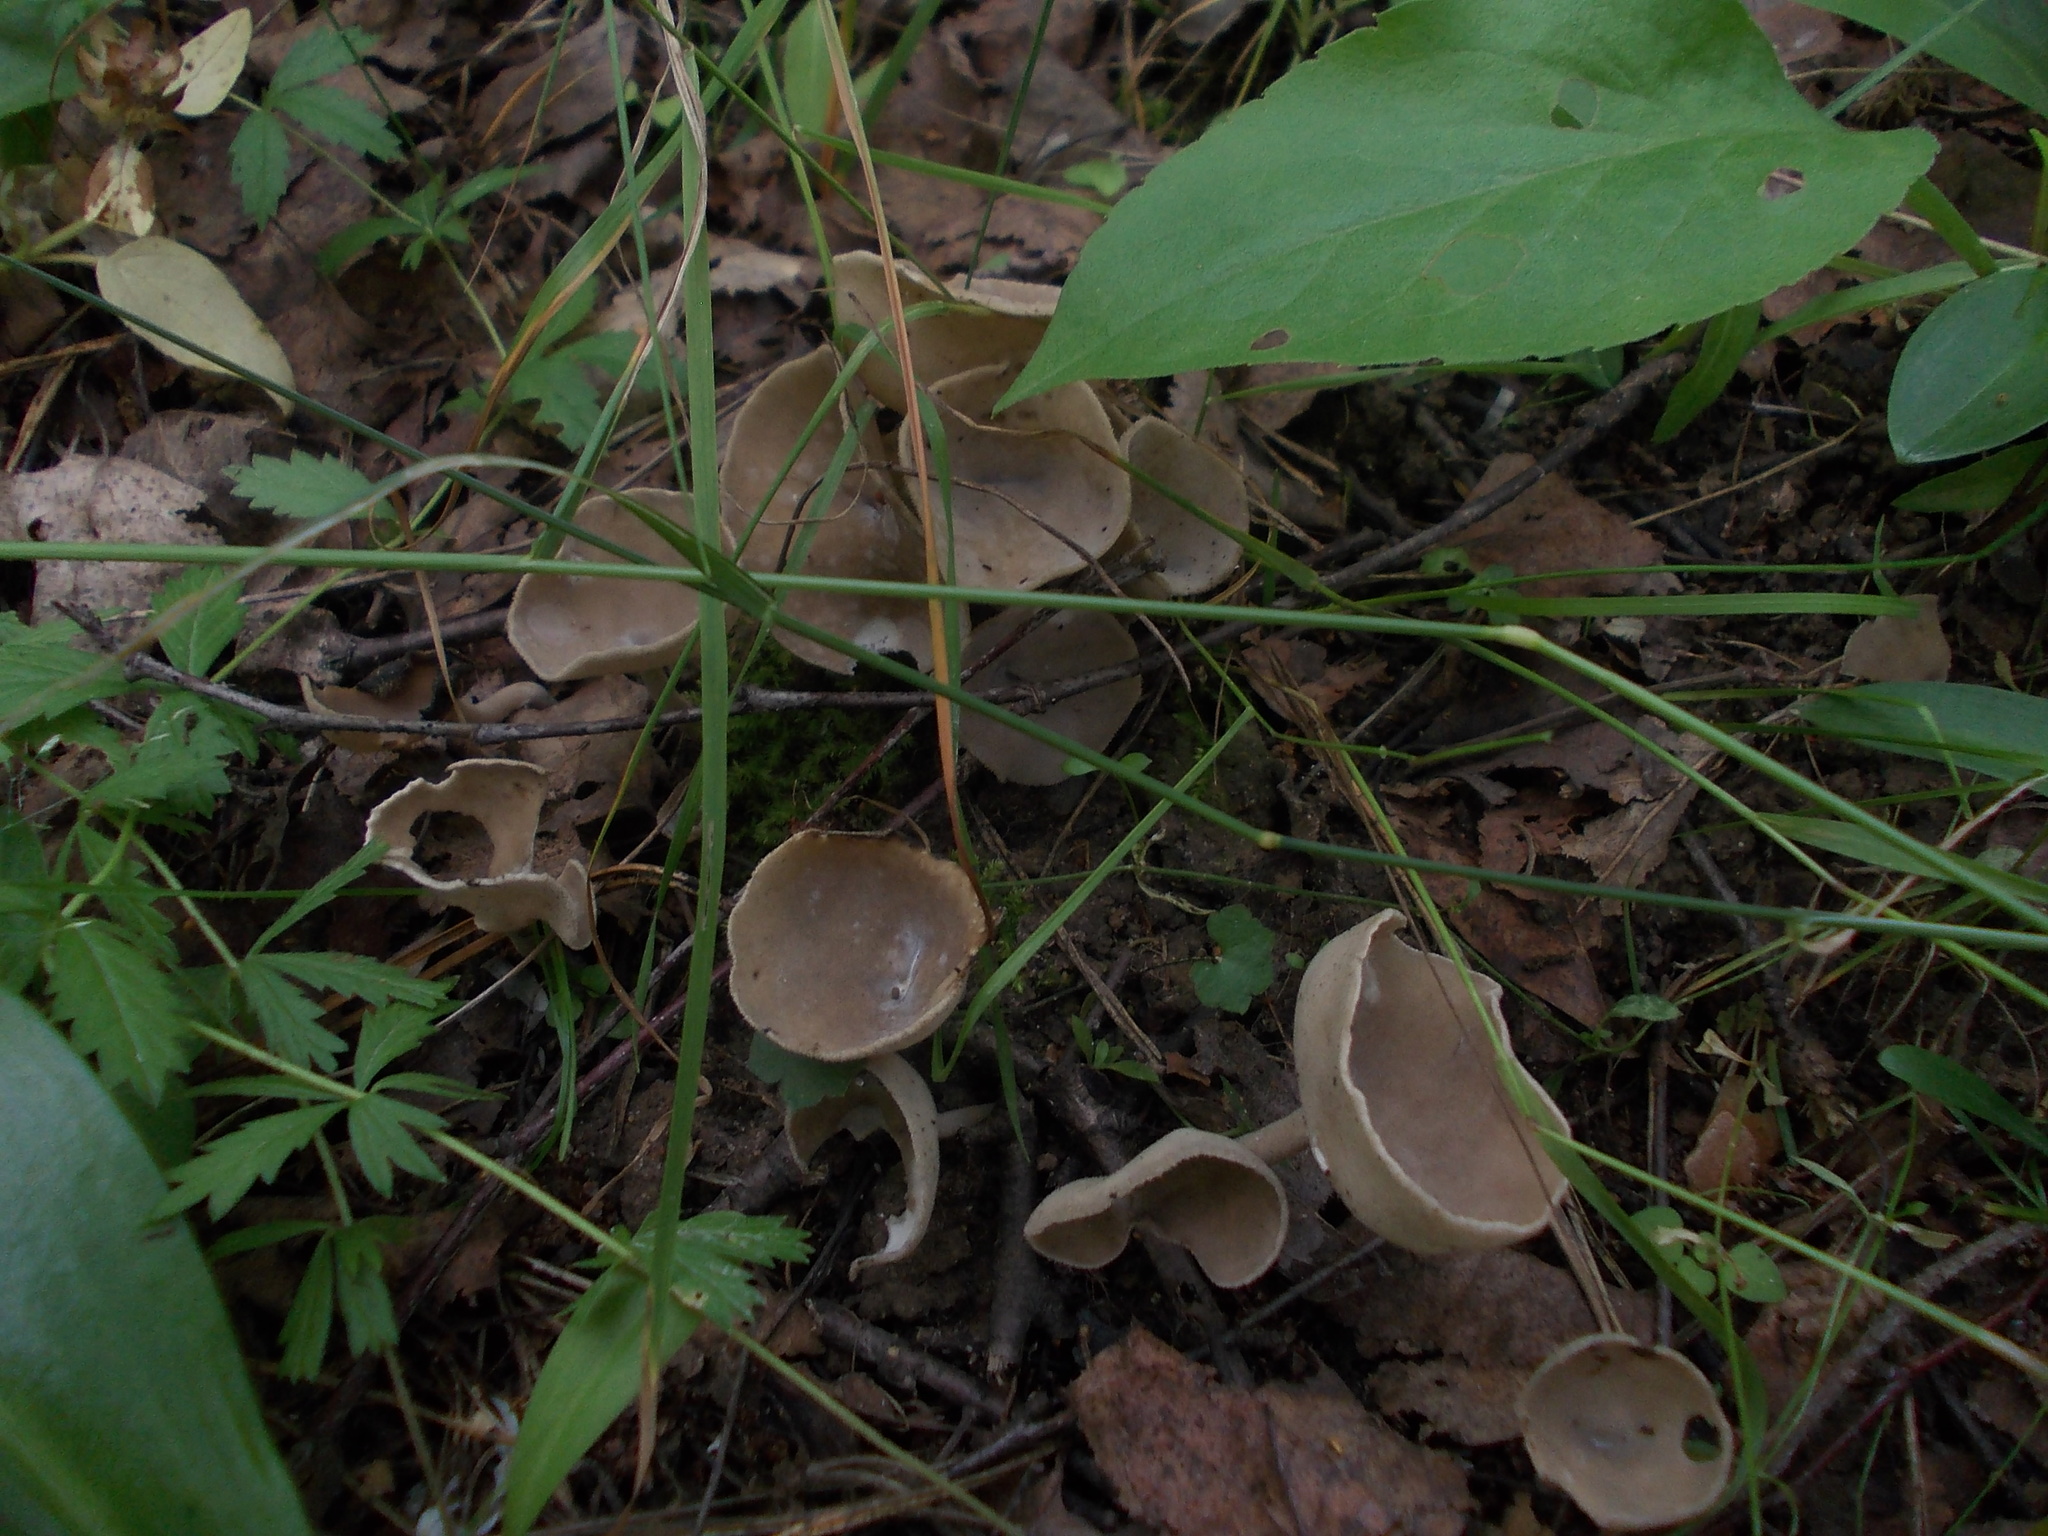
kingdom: Fungi
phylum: Ascomycota
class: Pezizomycetes
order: Pezizales
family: Helvellaceae
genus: Helvella
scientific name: Helvella macropus
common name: Felt saddle
